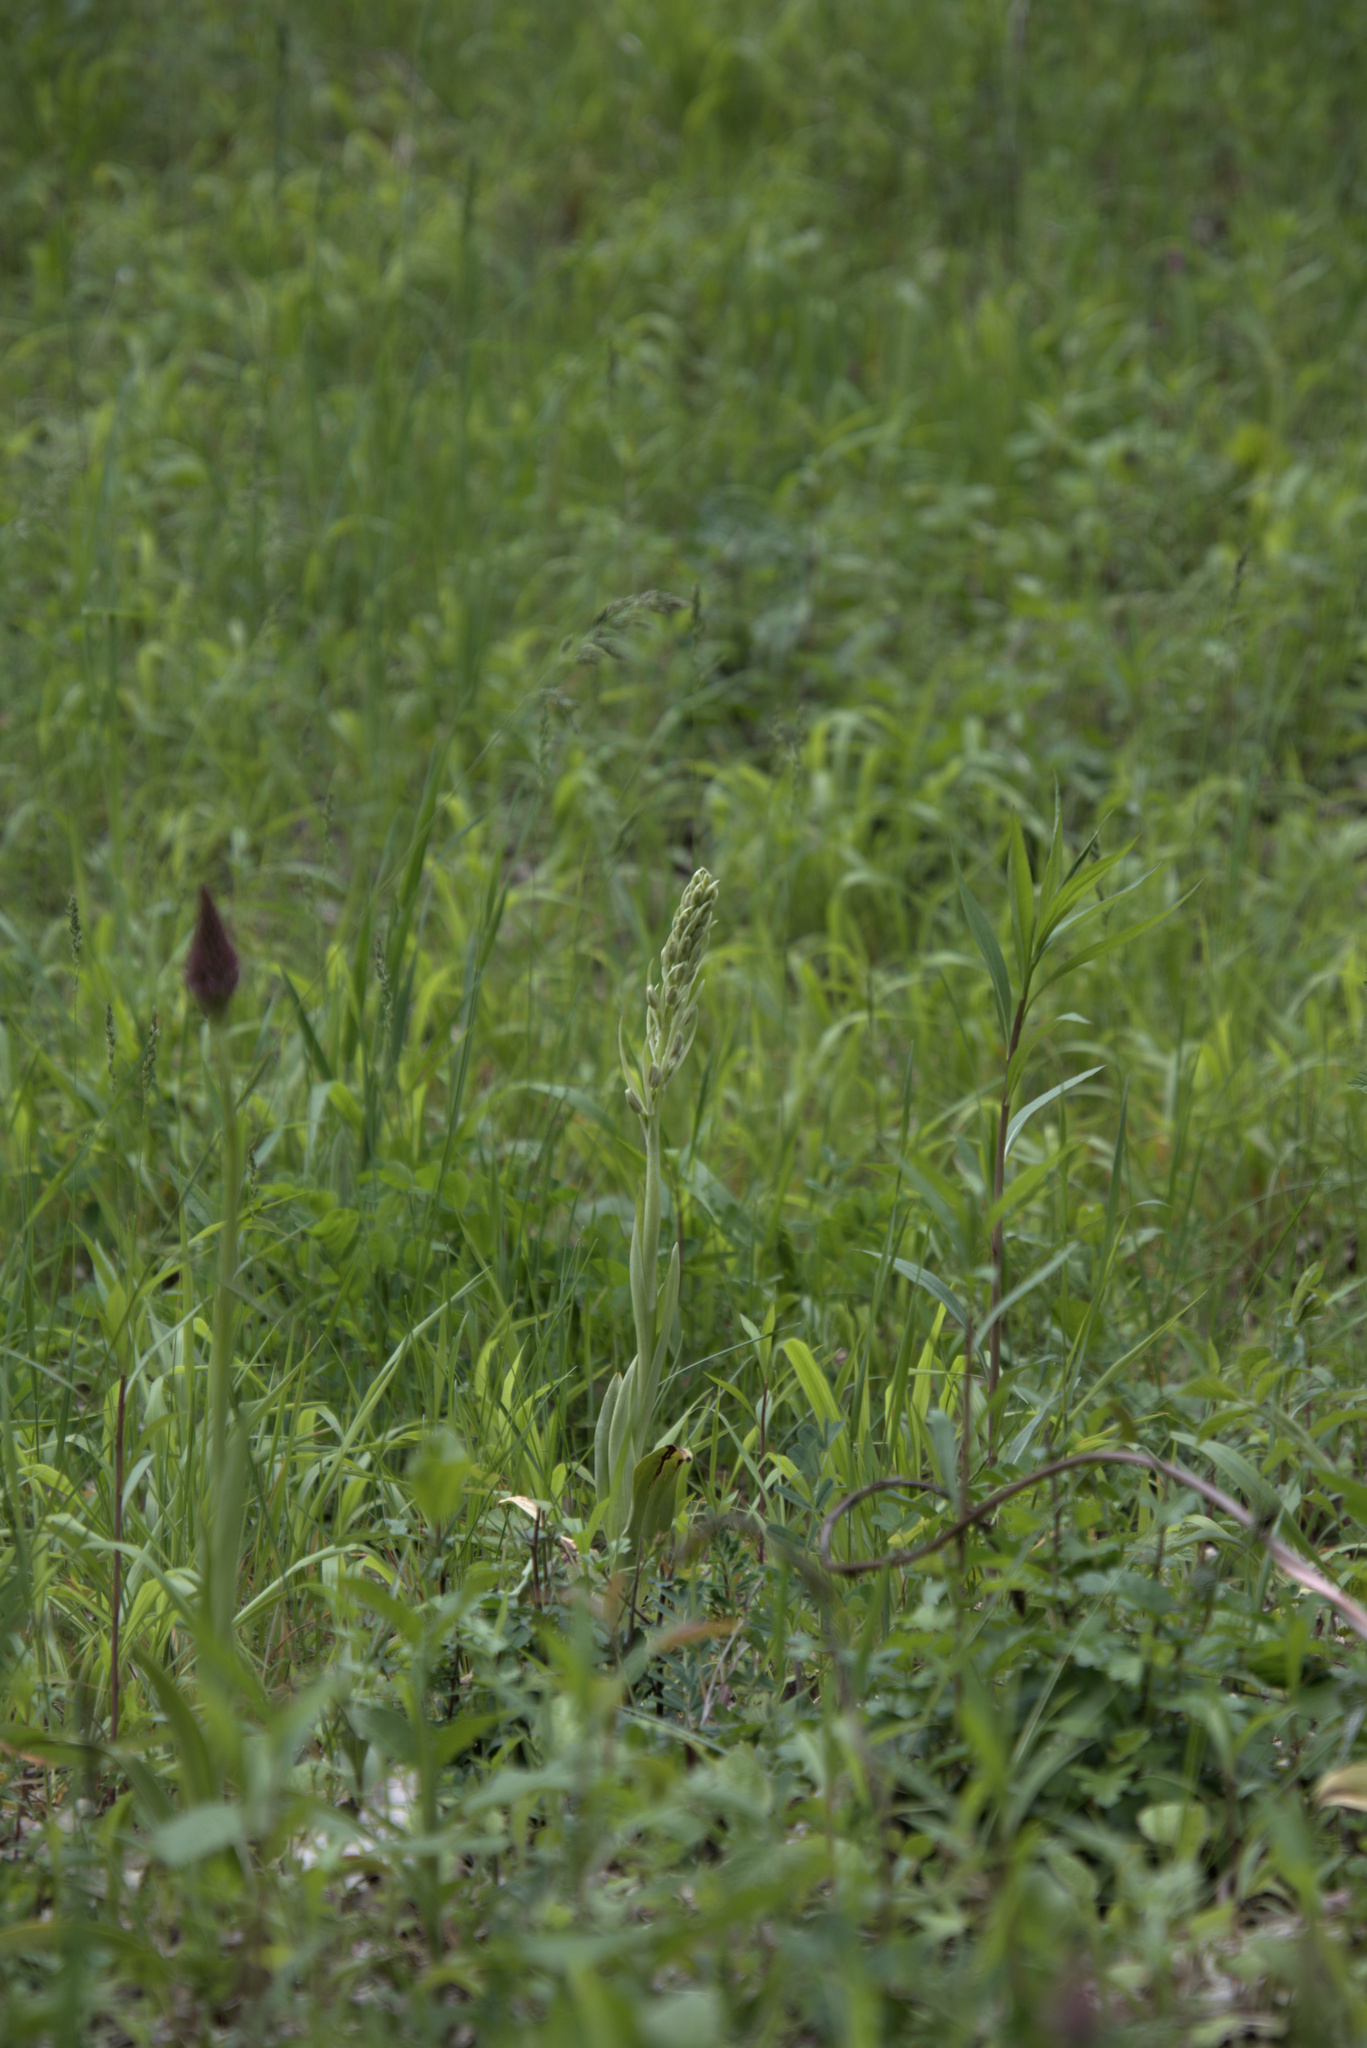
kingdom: Plantae
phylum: Tracheophyta
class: Liliopsida
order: Asparagales
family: Orchidaceae
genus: Himantoglossum
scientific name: Himantoglossum hircinum
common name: Lizard orchid
